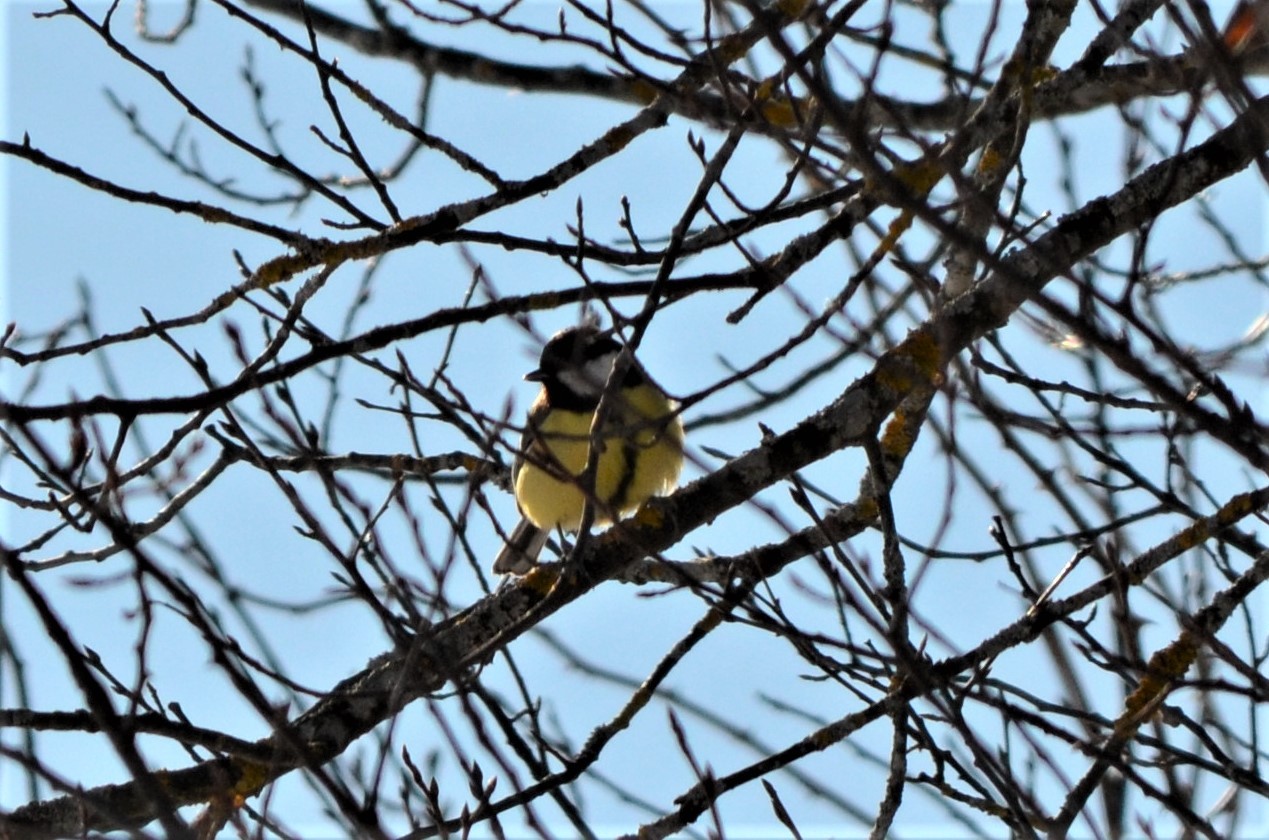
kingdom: Animalia
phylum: Chordata
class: Aves
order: Passeriformes
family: Paridae
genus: Parus
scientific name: Parus major
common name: Great tit
